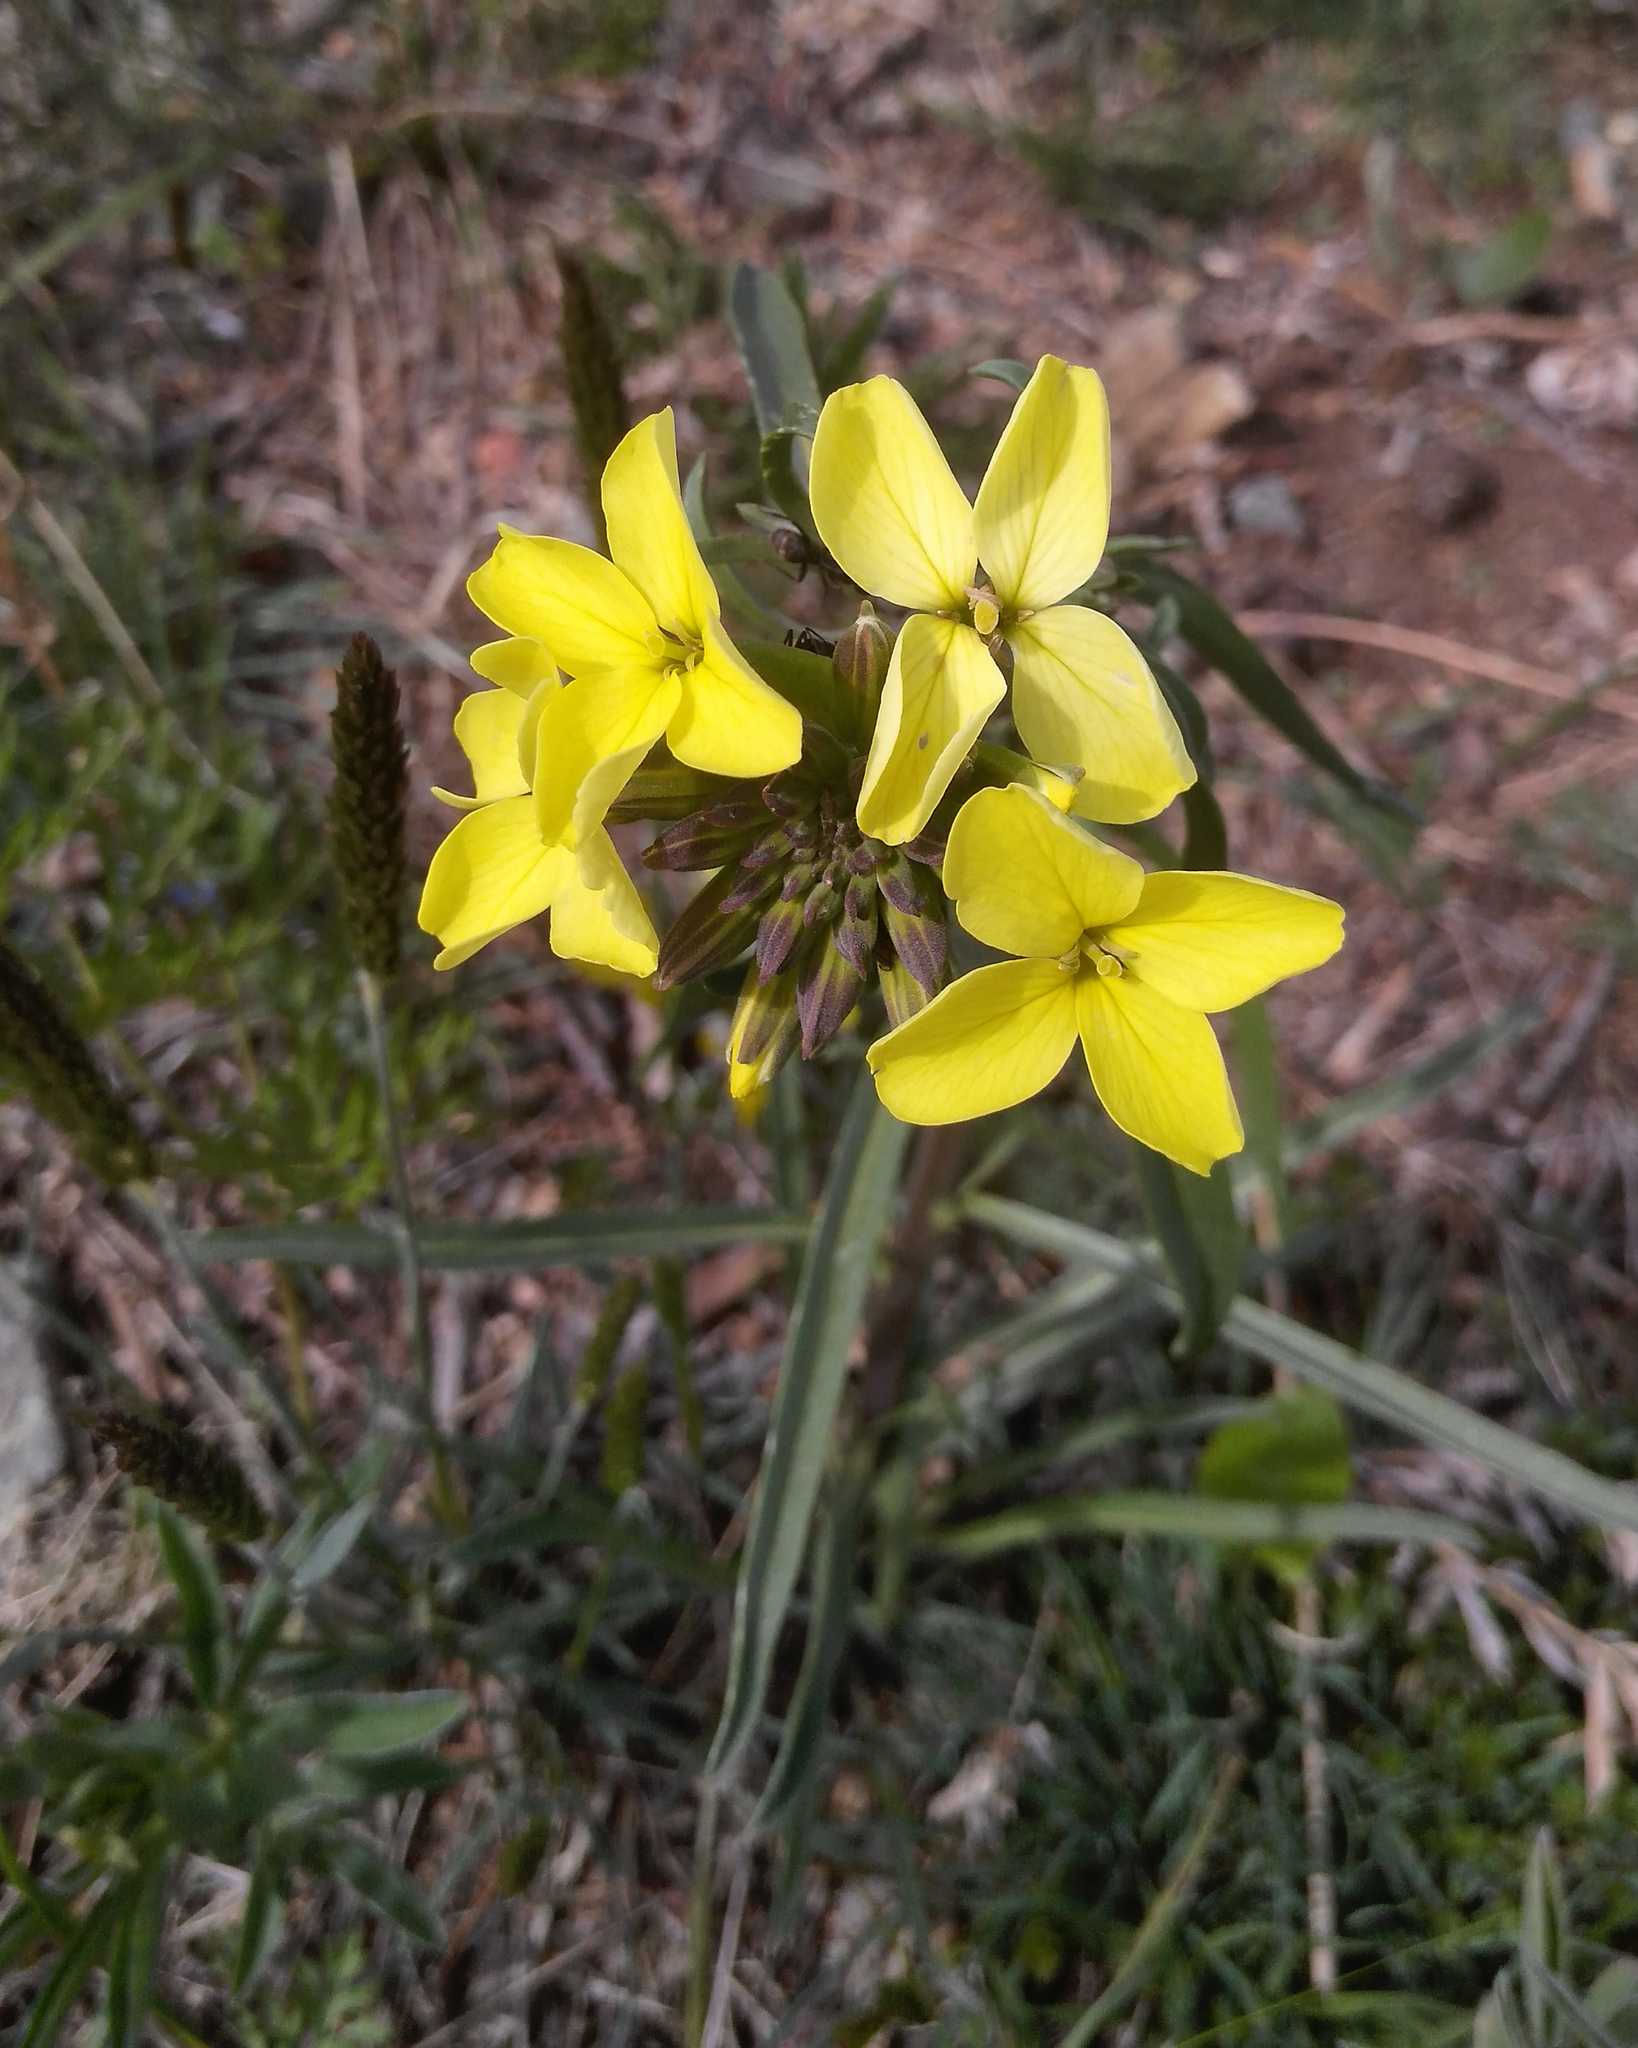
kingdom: Plantae
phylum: Tracheophyta
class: Magnoliopsida
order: Brassicales
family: Brassicaceae
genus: Erysimum
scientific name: Erysimum flavum
